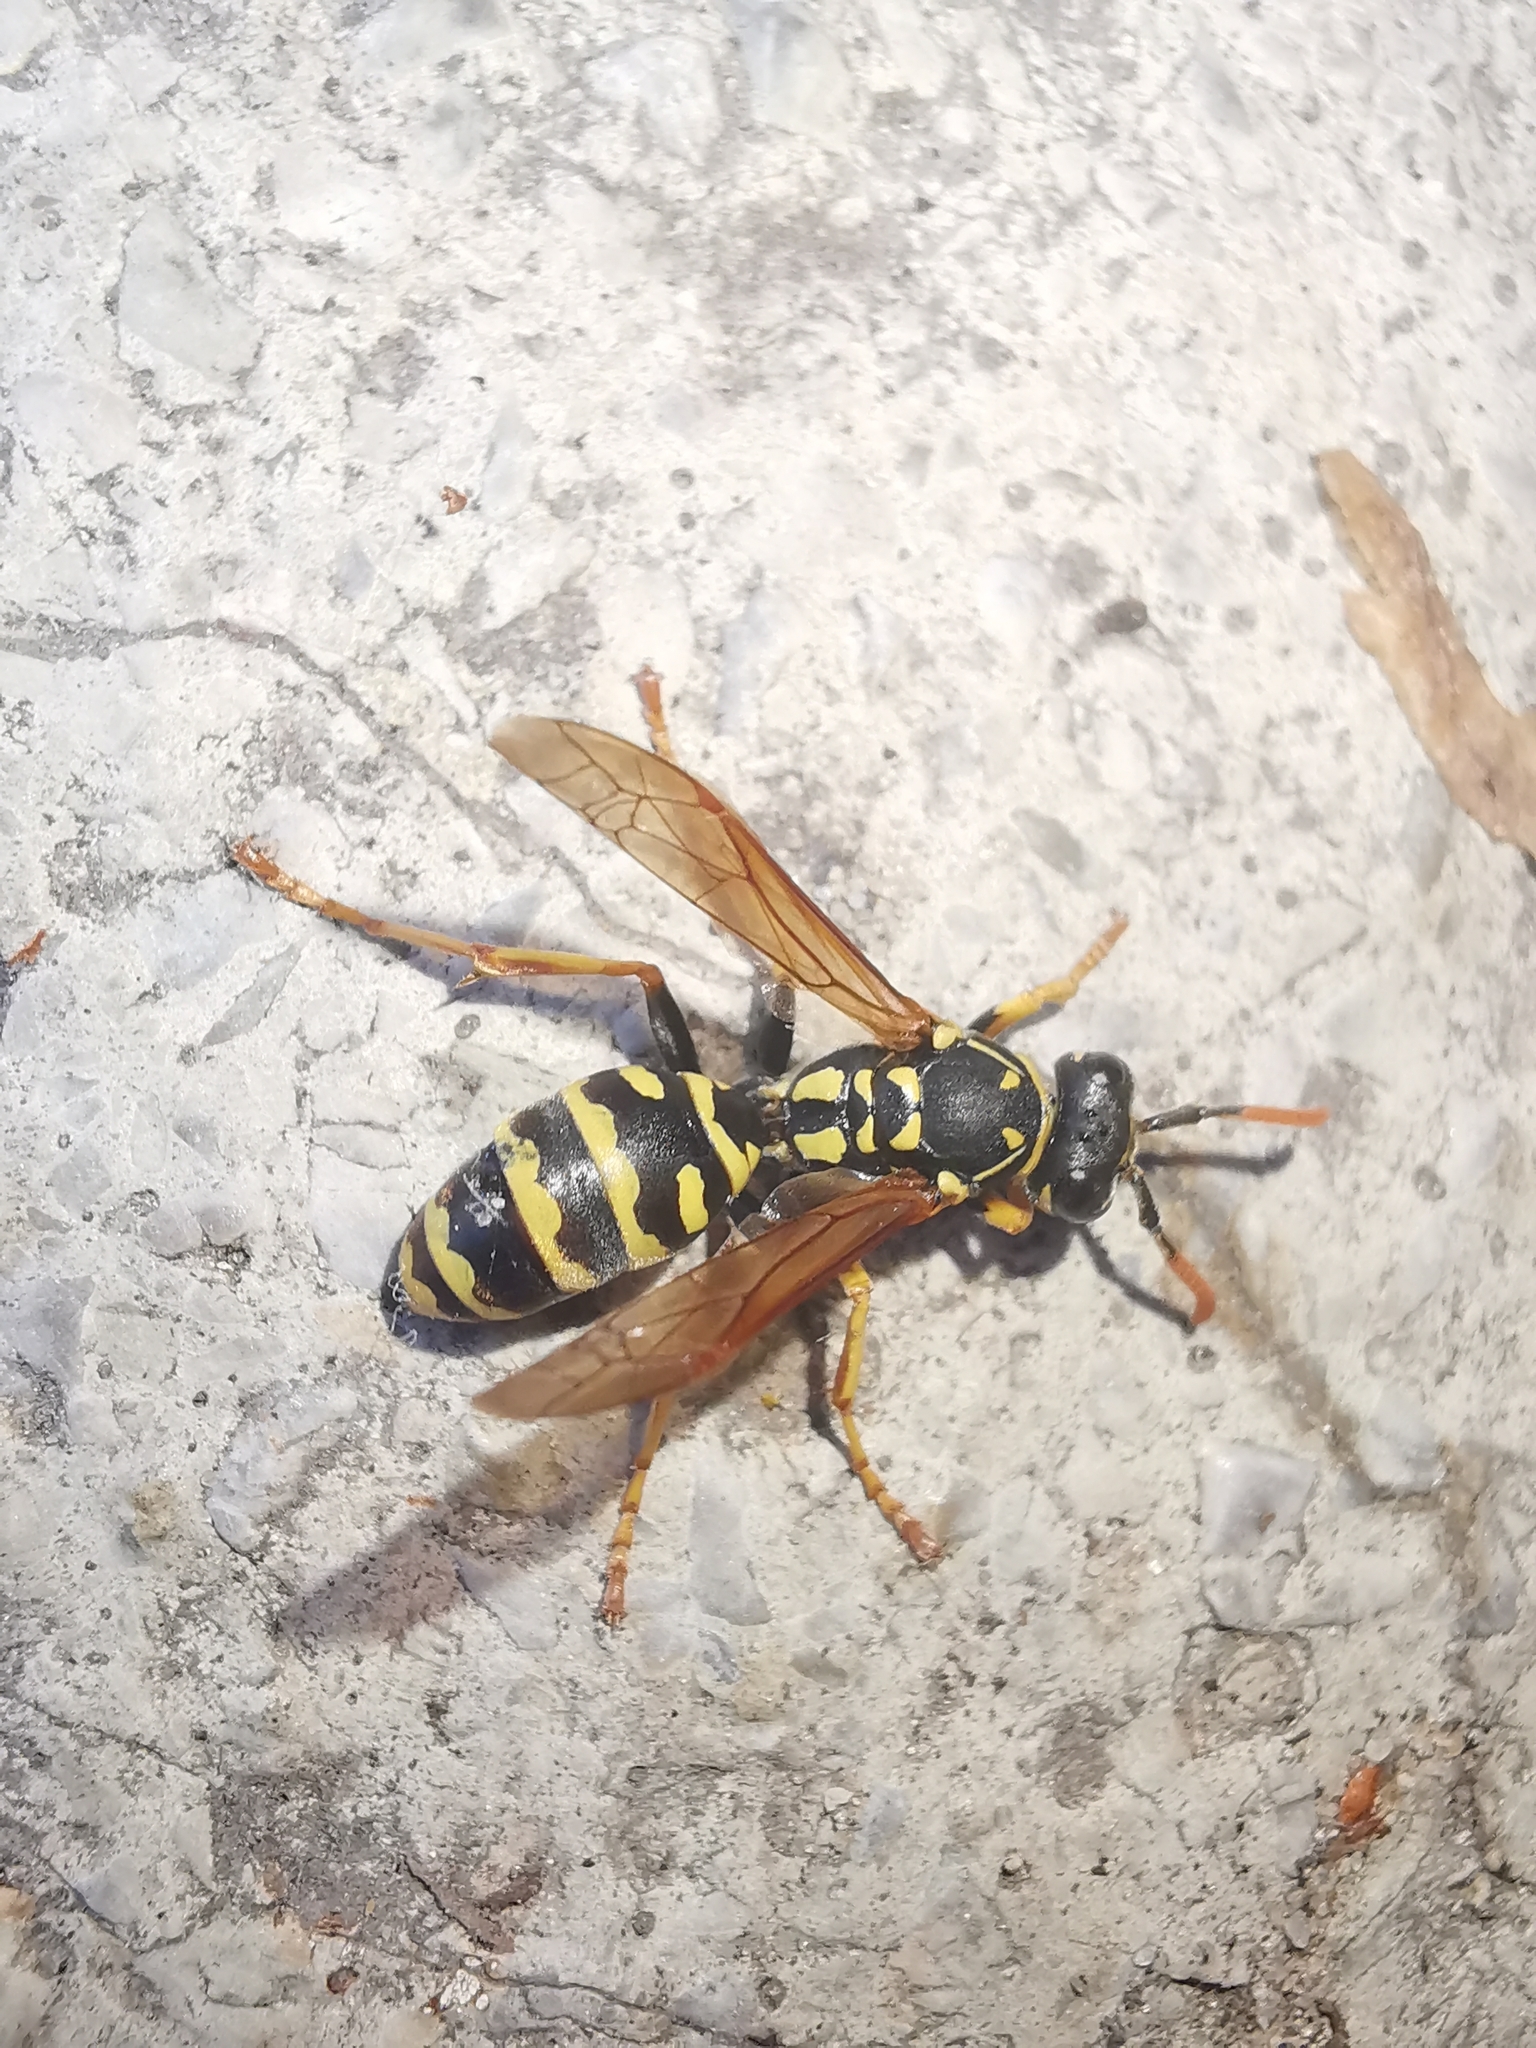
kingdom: Animalia
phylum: Arthropoda
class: Insecta
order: Hymenoptera
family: Eumenidae
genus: Polistes
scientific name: Polistes dominula
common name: Paper wasp
